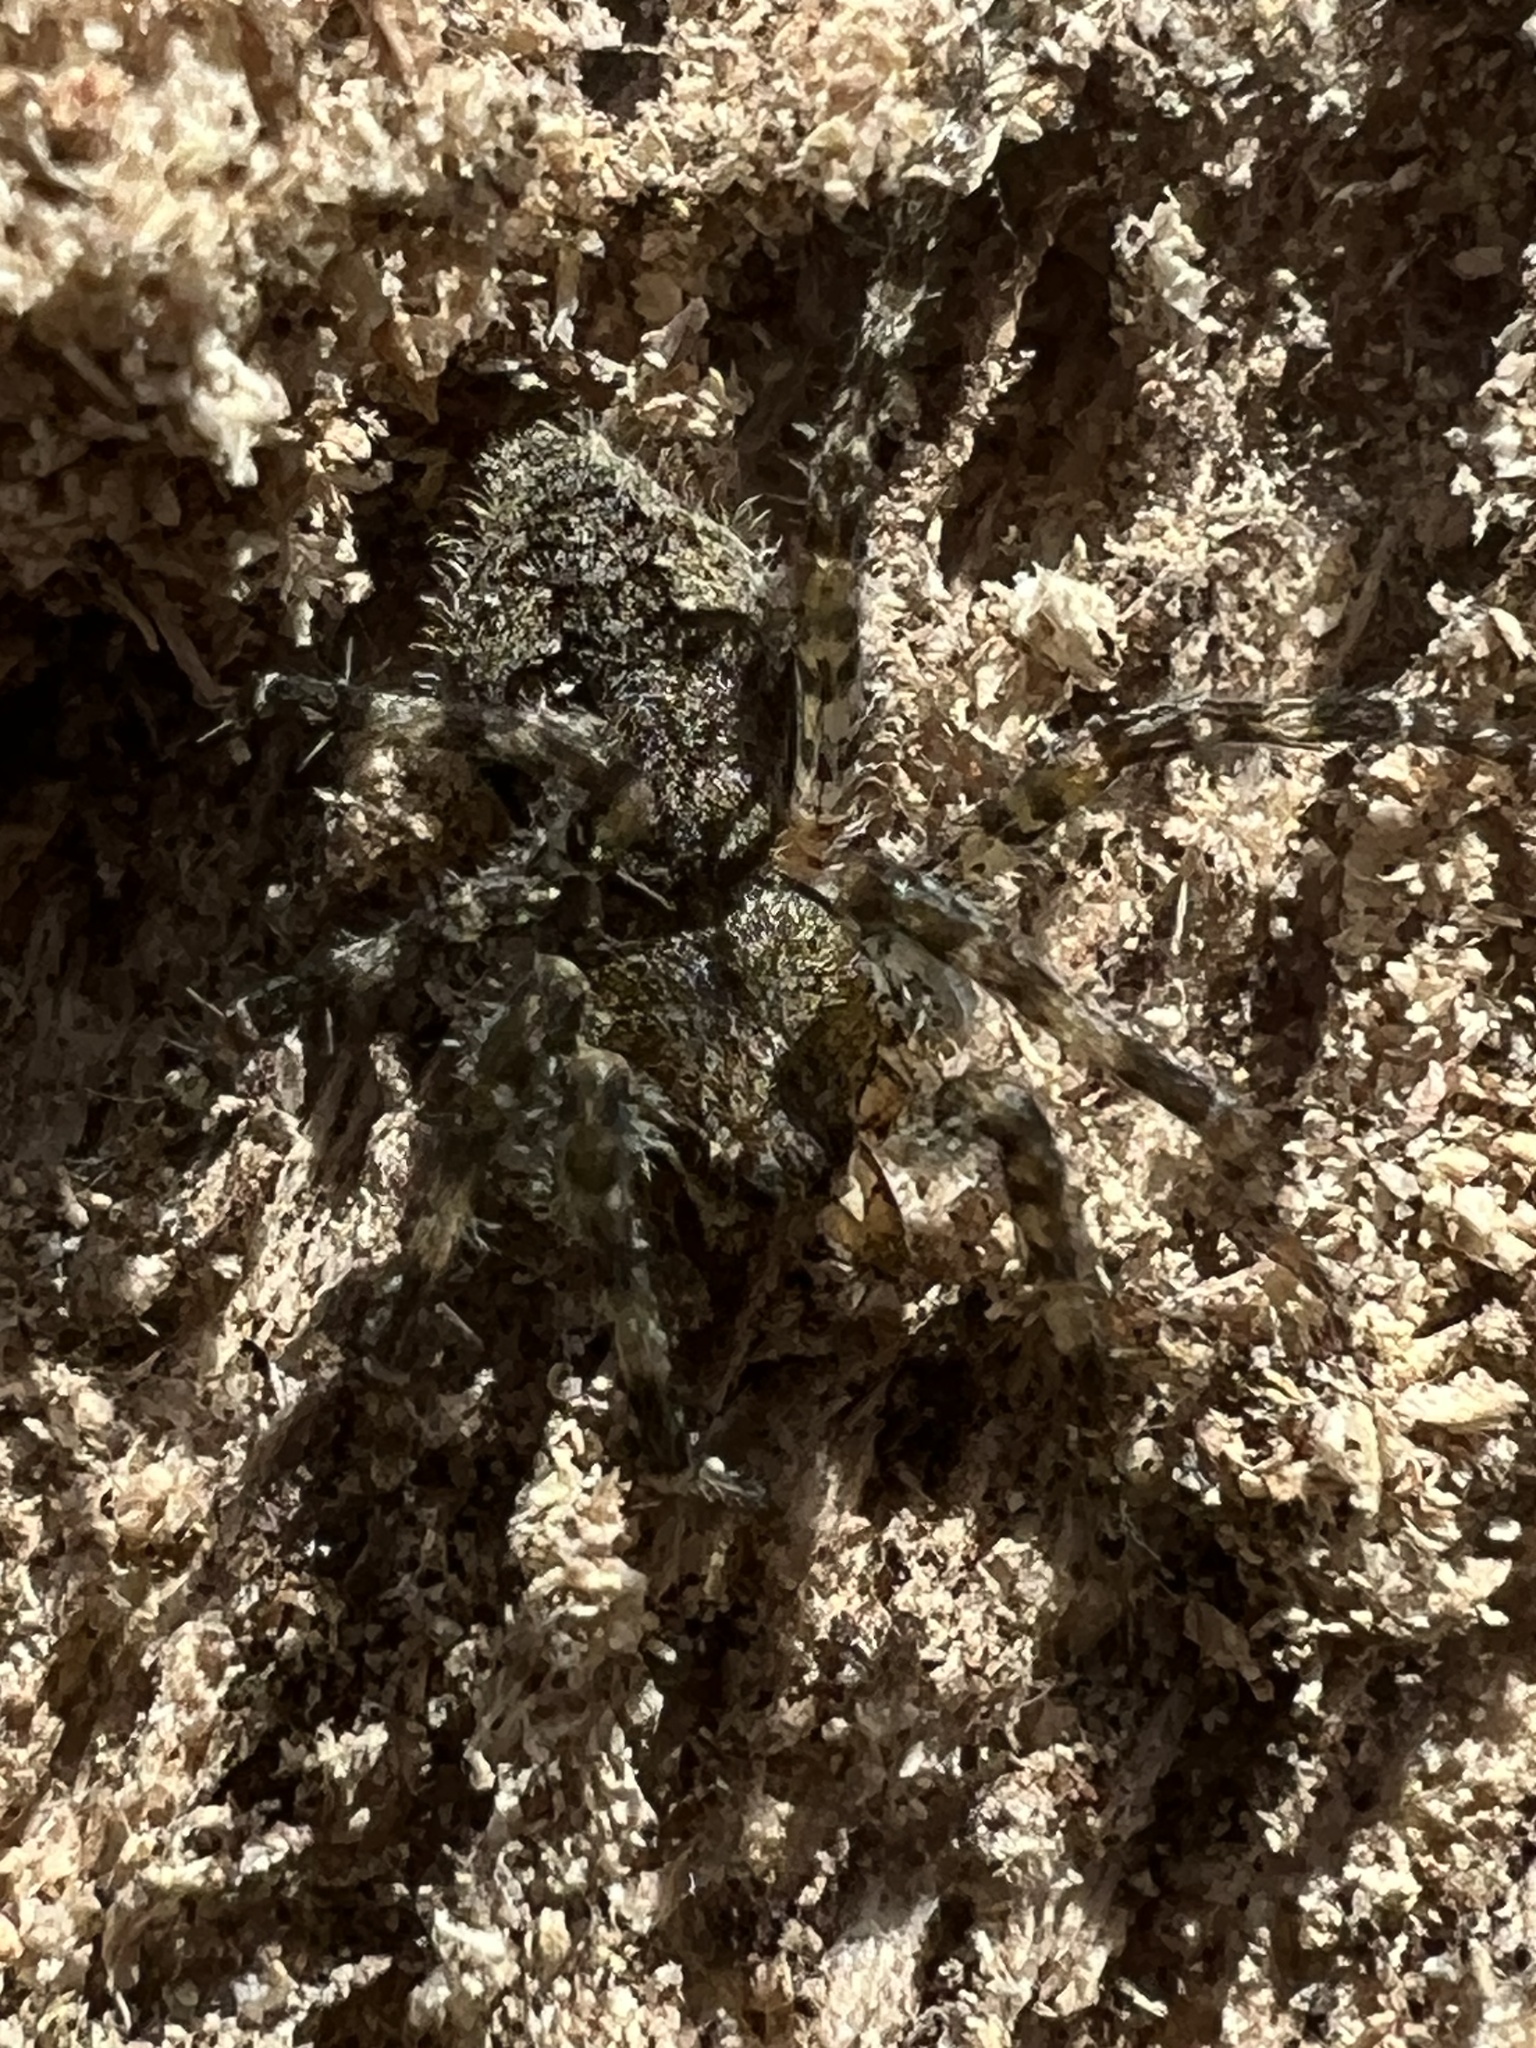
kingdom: Animalia
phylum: Arthropoda
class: Arachnida
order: Araneae
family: Pisauridae
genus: Dolomedes
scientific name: Dolomedes albineus
